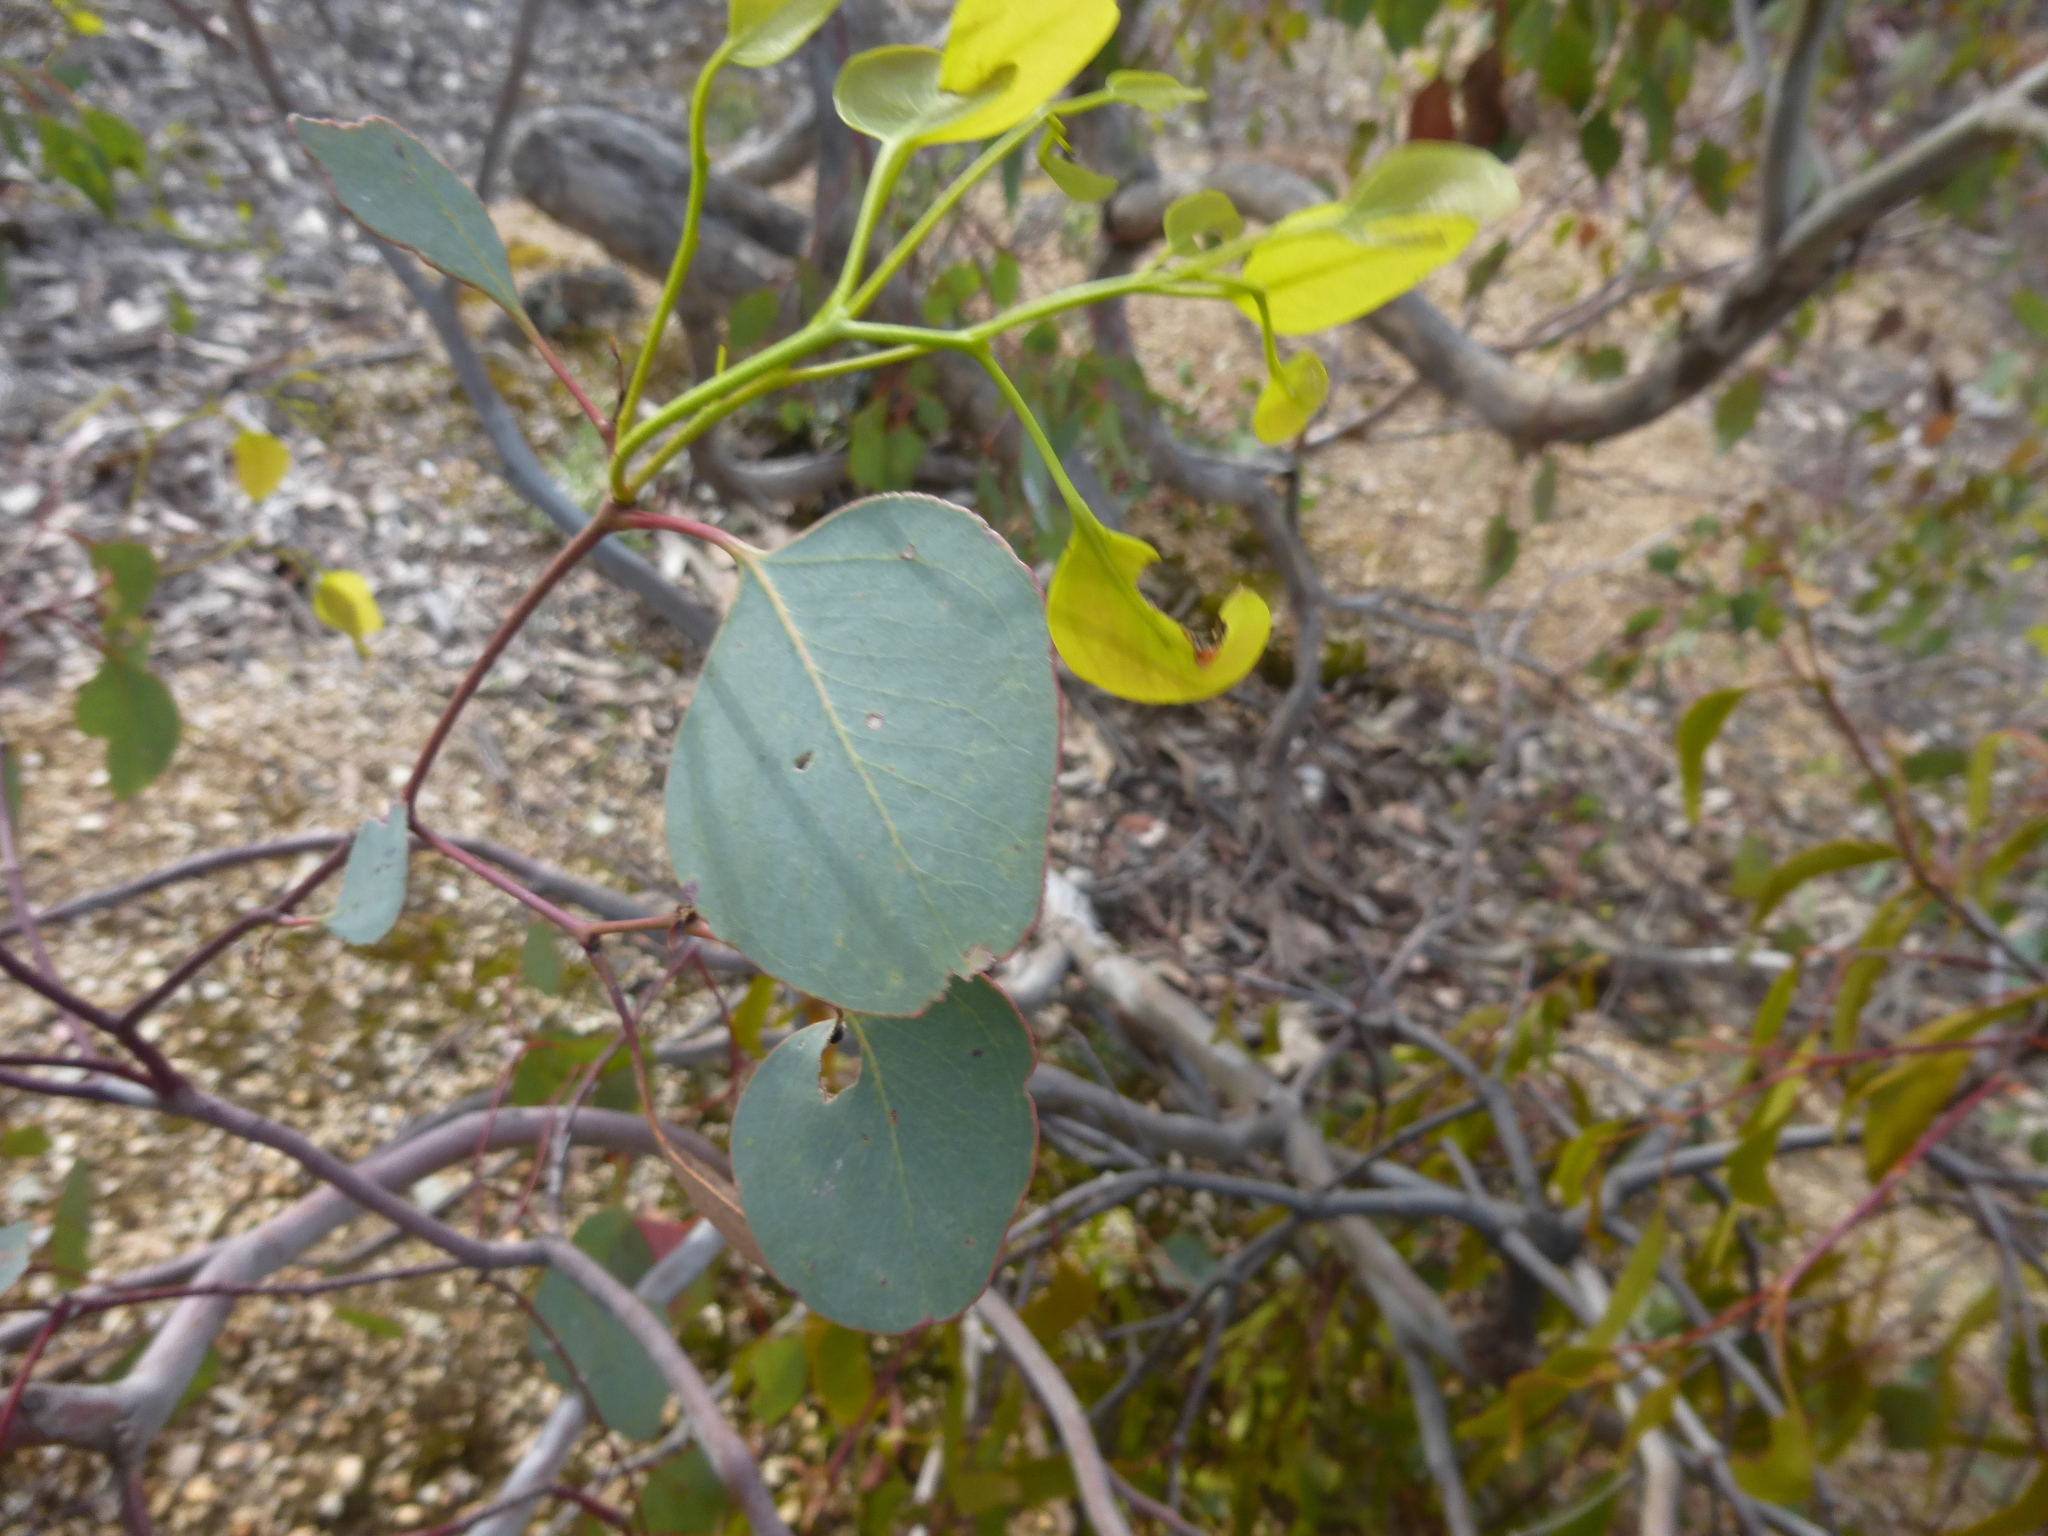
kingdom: Plantae
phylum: Tracheophyta
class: Magnoliopsida
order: Myrtales
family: Myrtaceae
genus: Eucalyptus
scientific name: Eucalyptus polyanthemos
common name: Red-box
